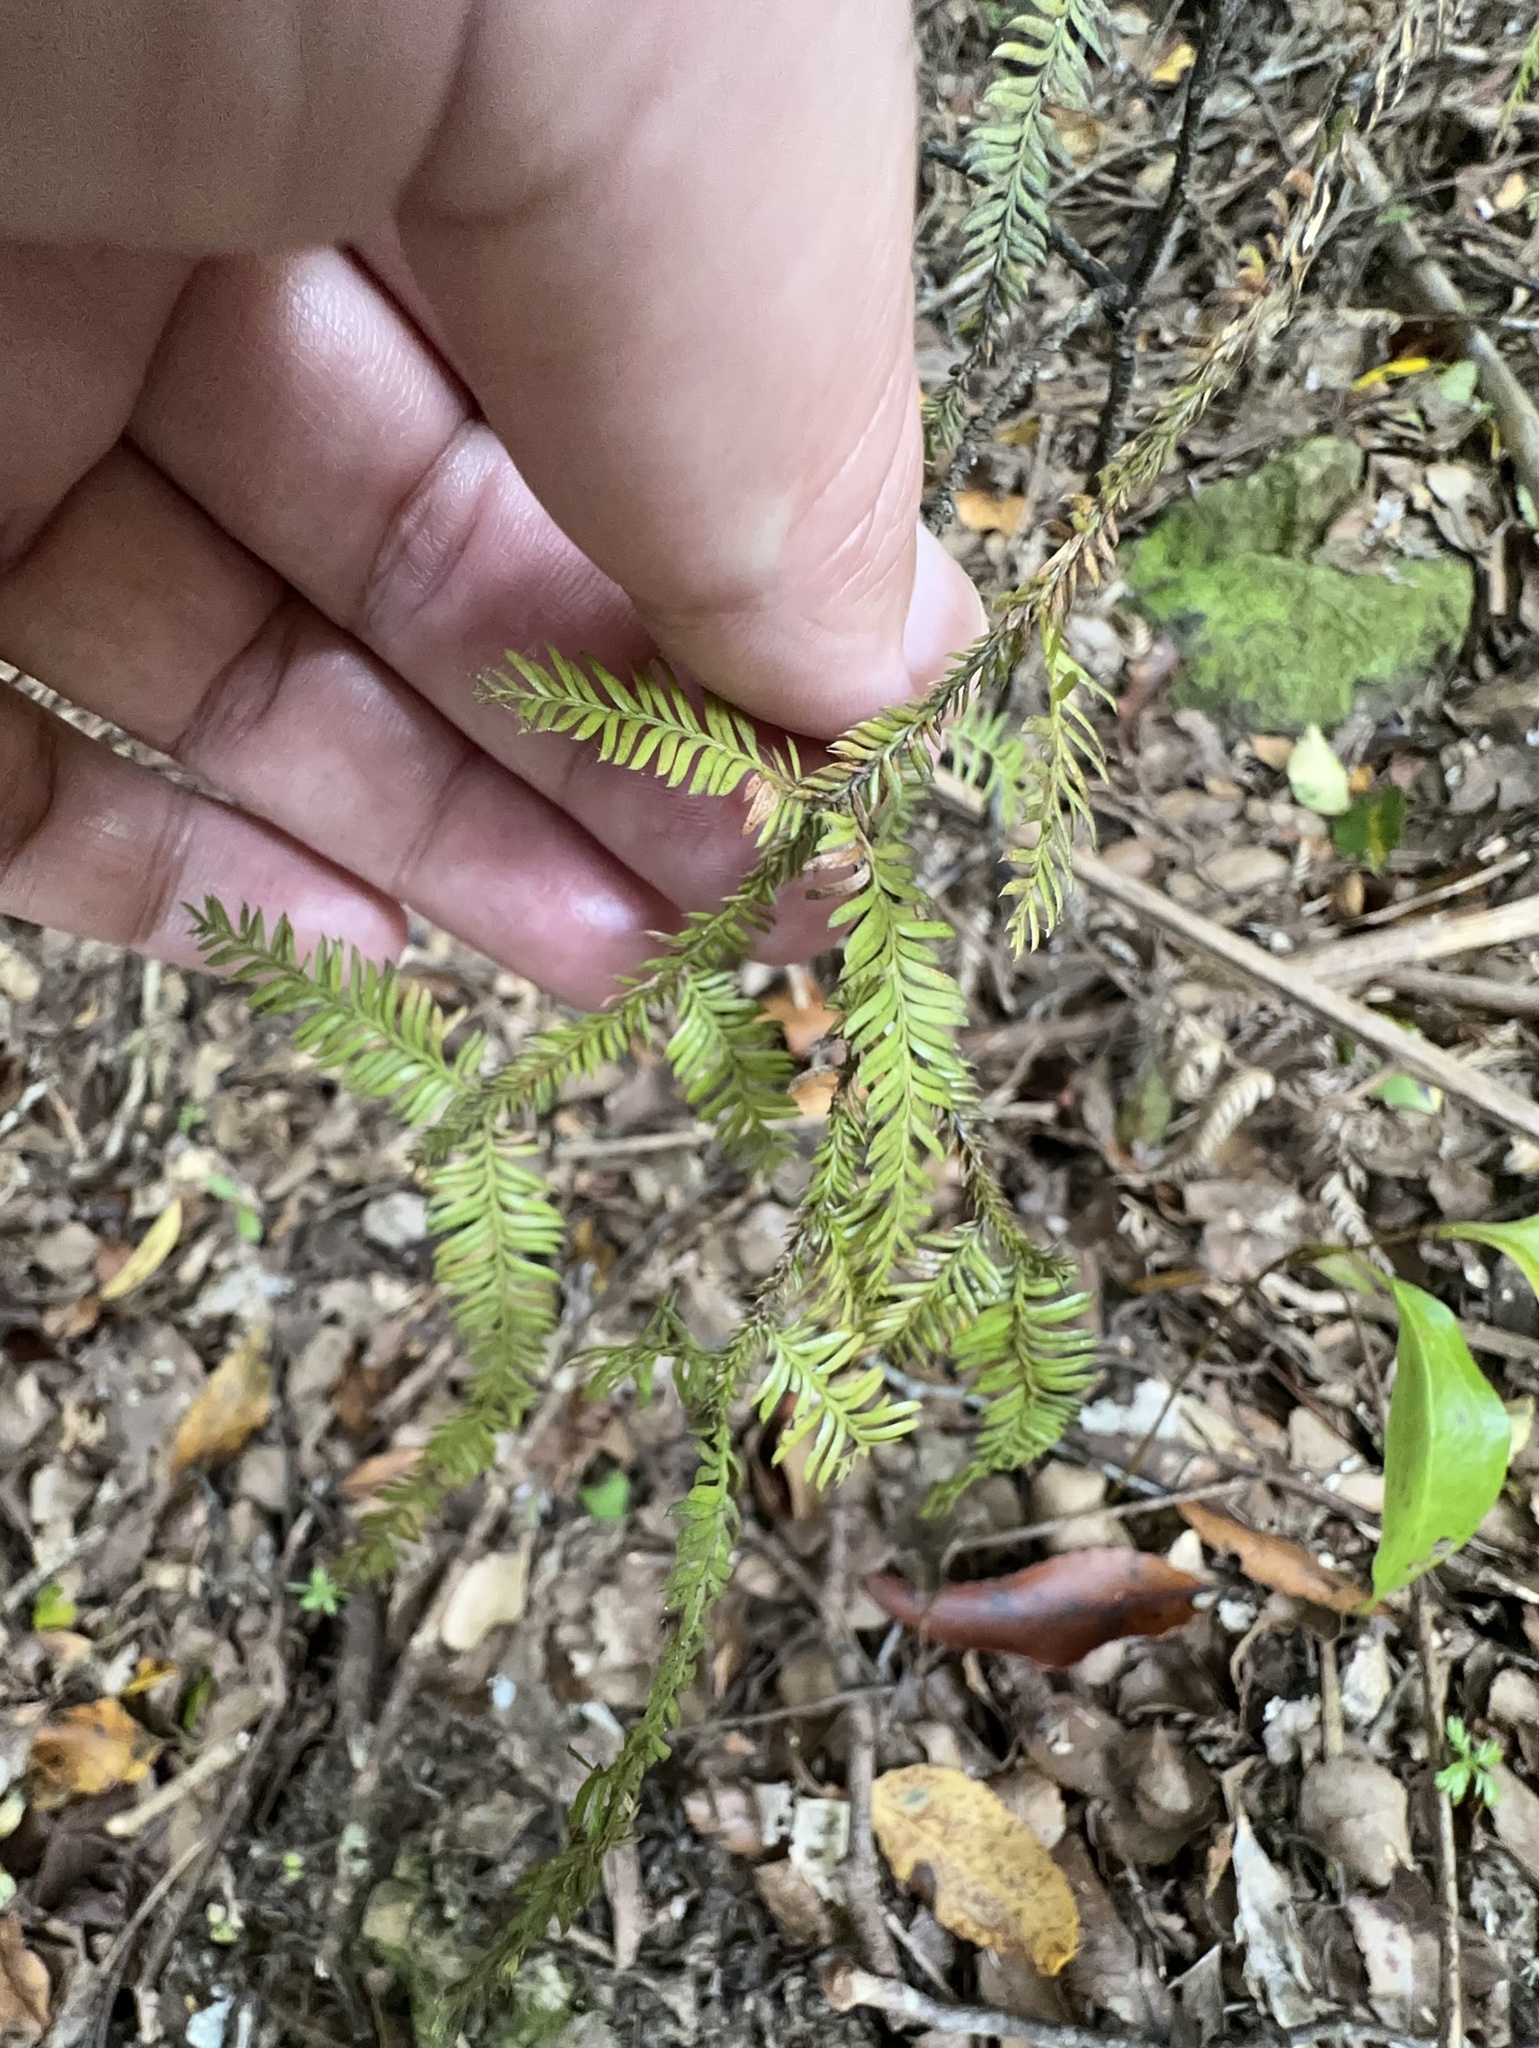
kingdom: Plantae
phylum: Tracheophyta
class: Pinopsida
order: Pinales
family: Podocarpaceae
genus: Dacrycarpus
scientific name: Dacrycarpus dacrydioides
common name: White pine
